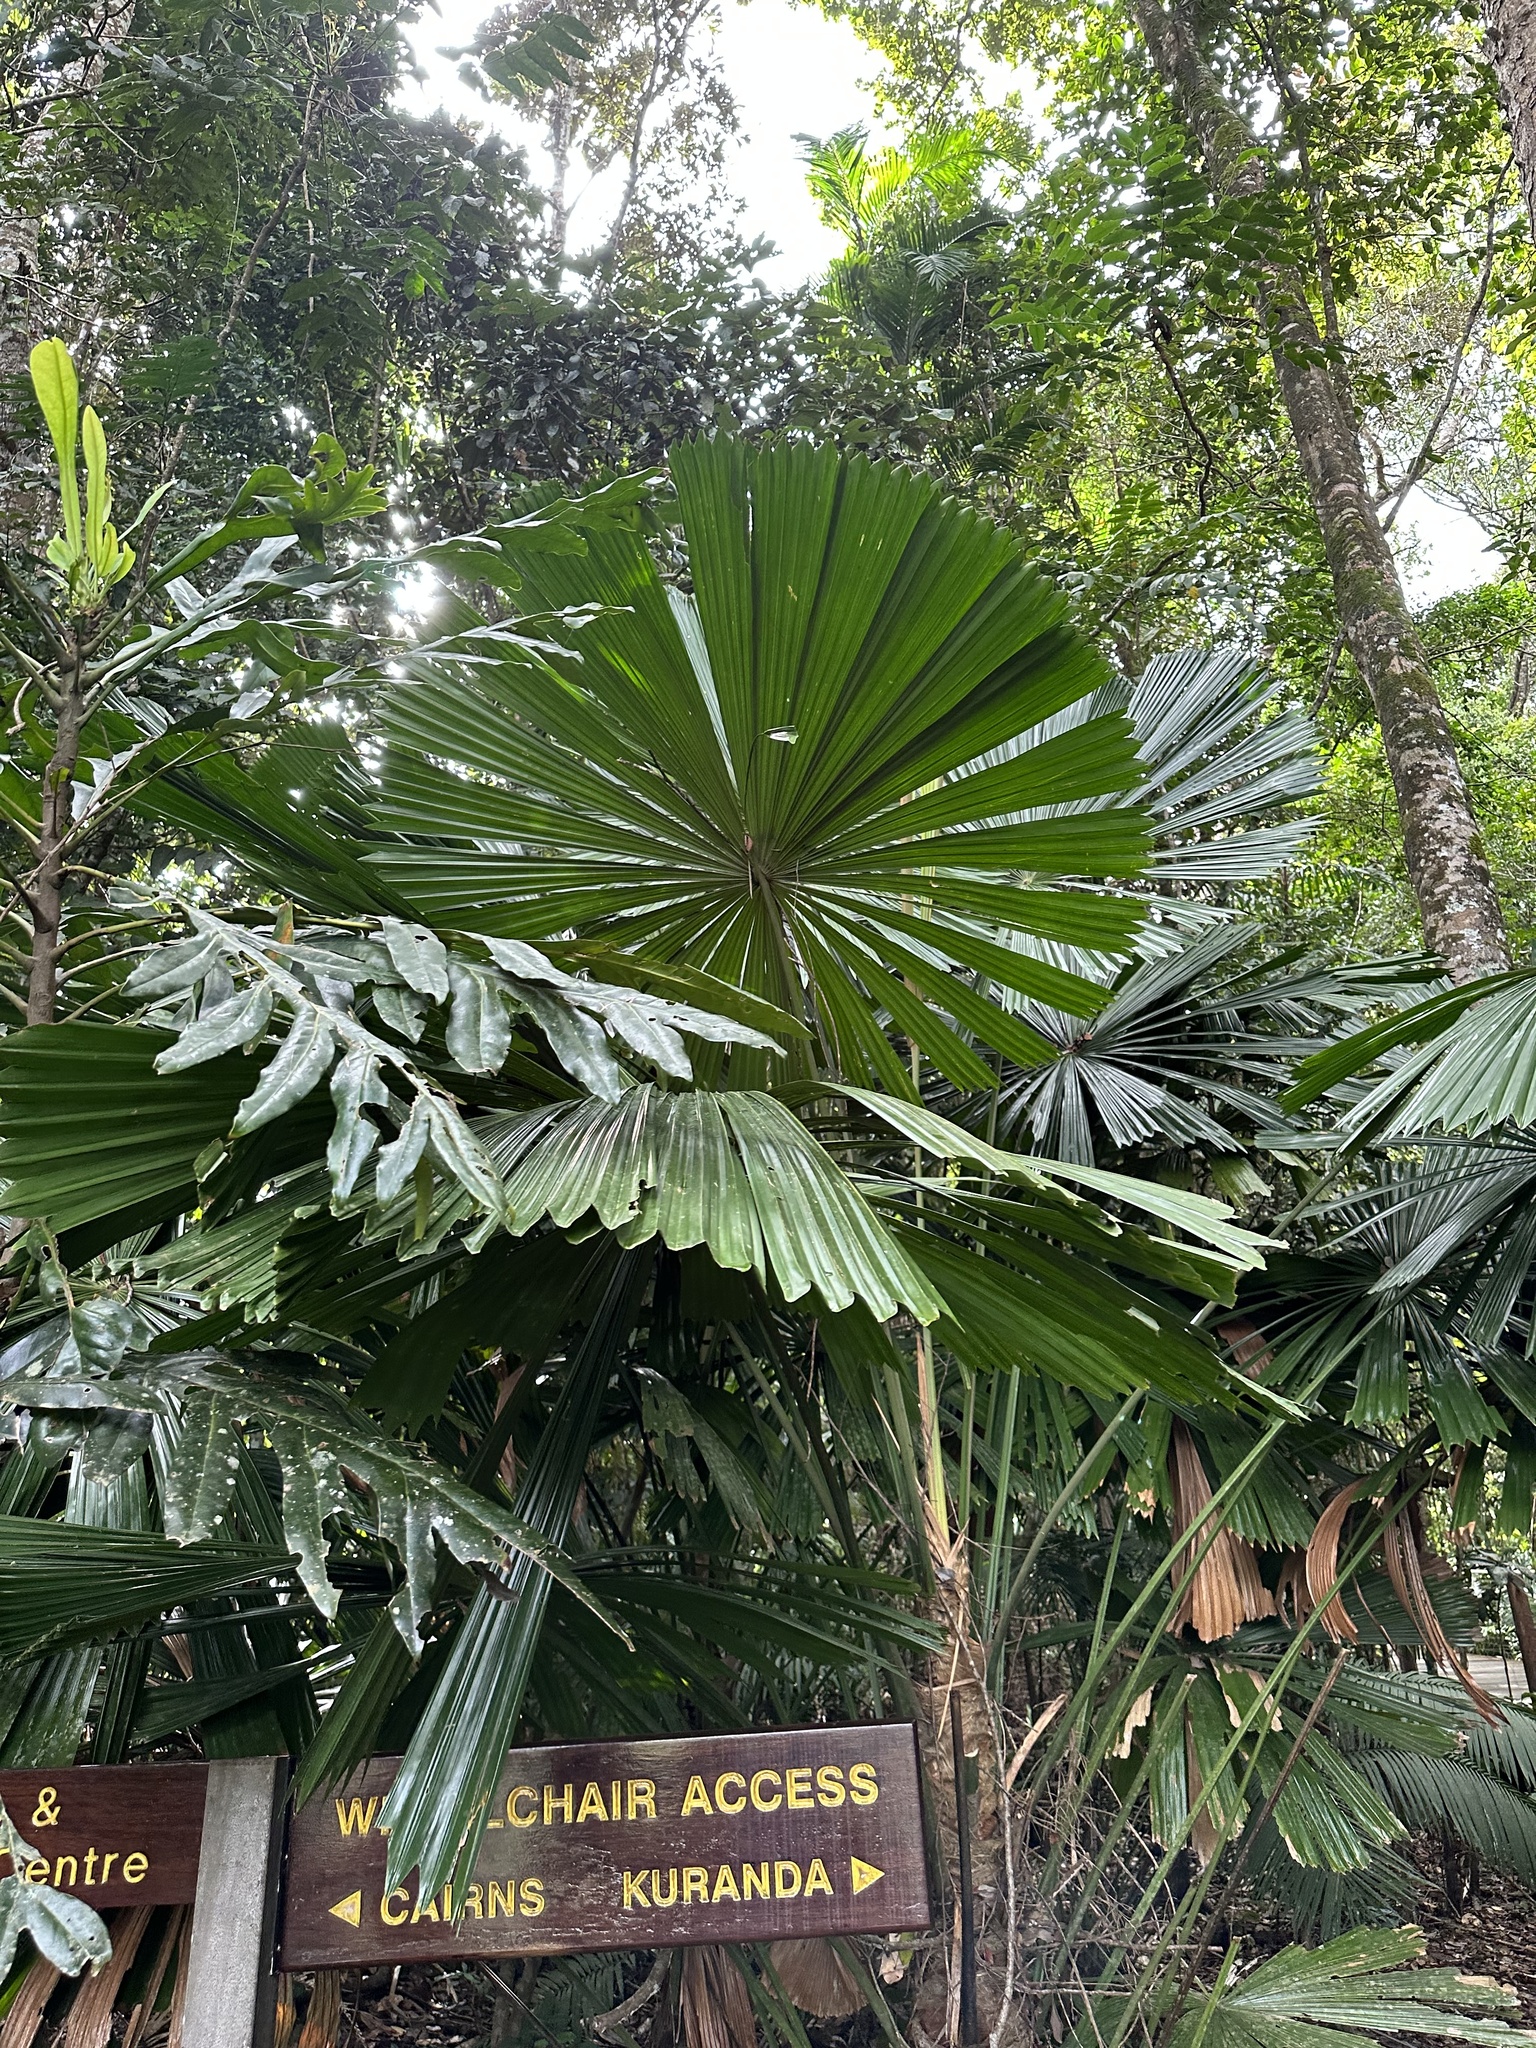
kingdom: Plantae
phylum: Tracheophyta
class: Liliopsida
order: Arecales
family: Arecaceae
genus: Licuala
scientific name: Licuala ramsayi
